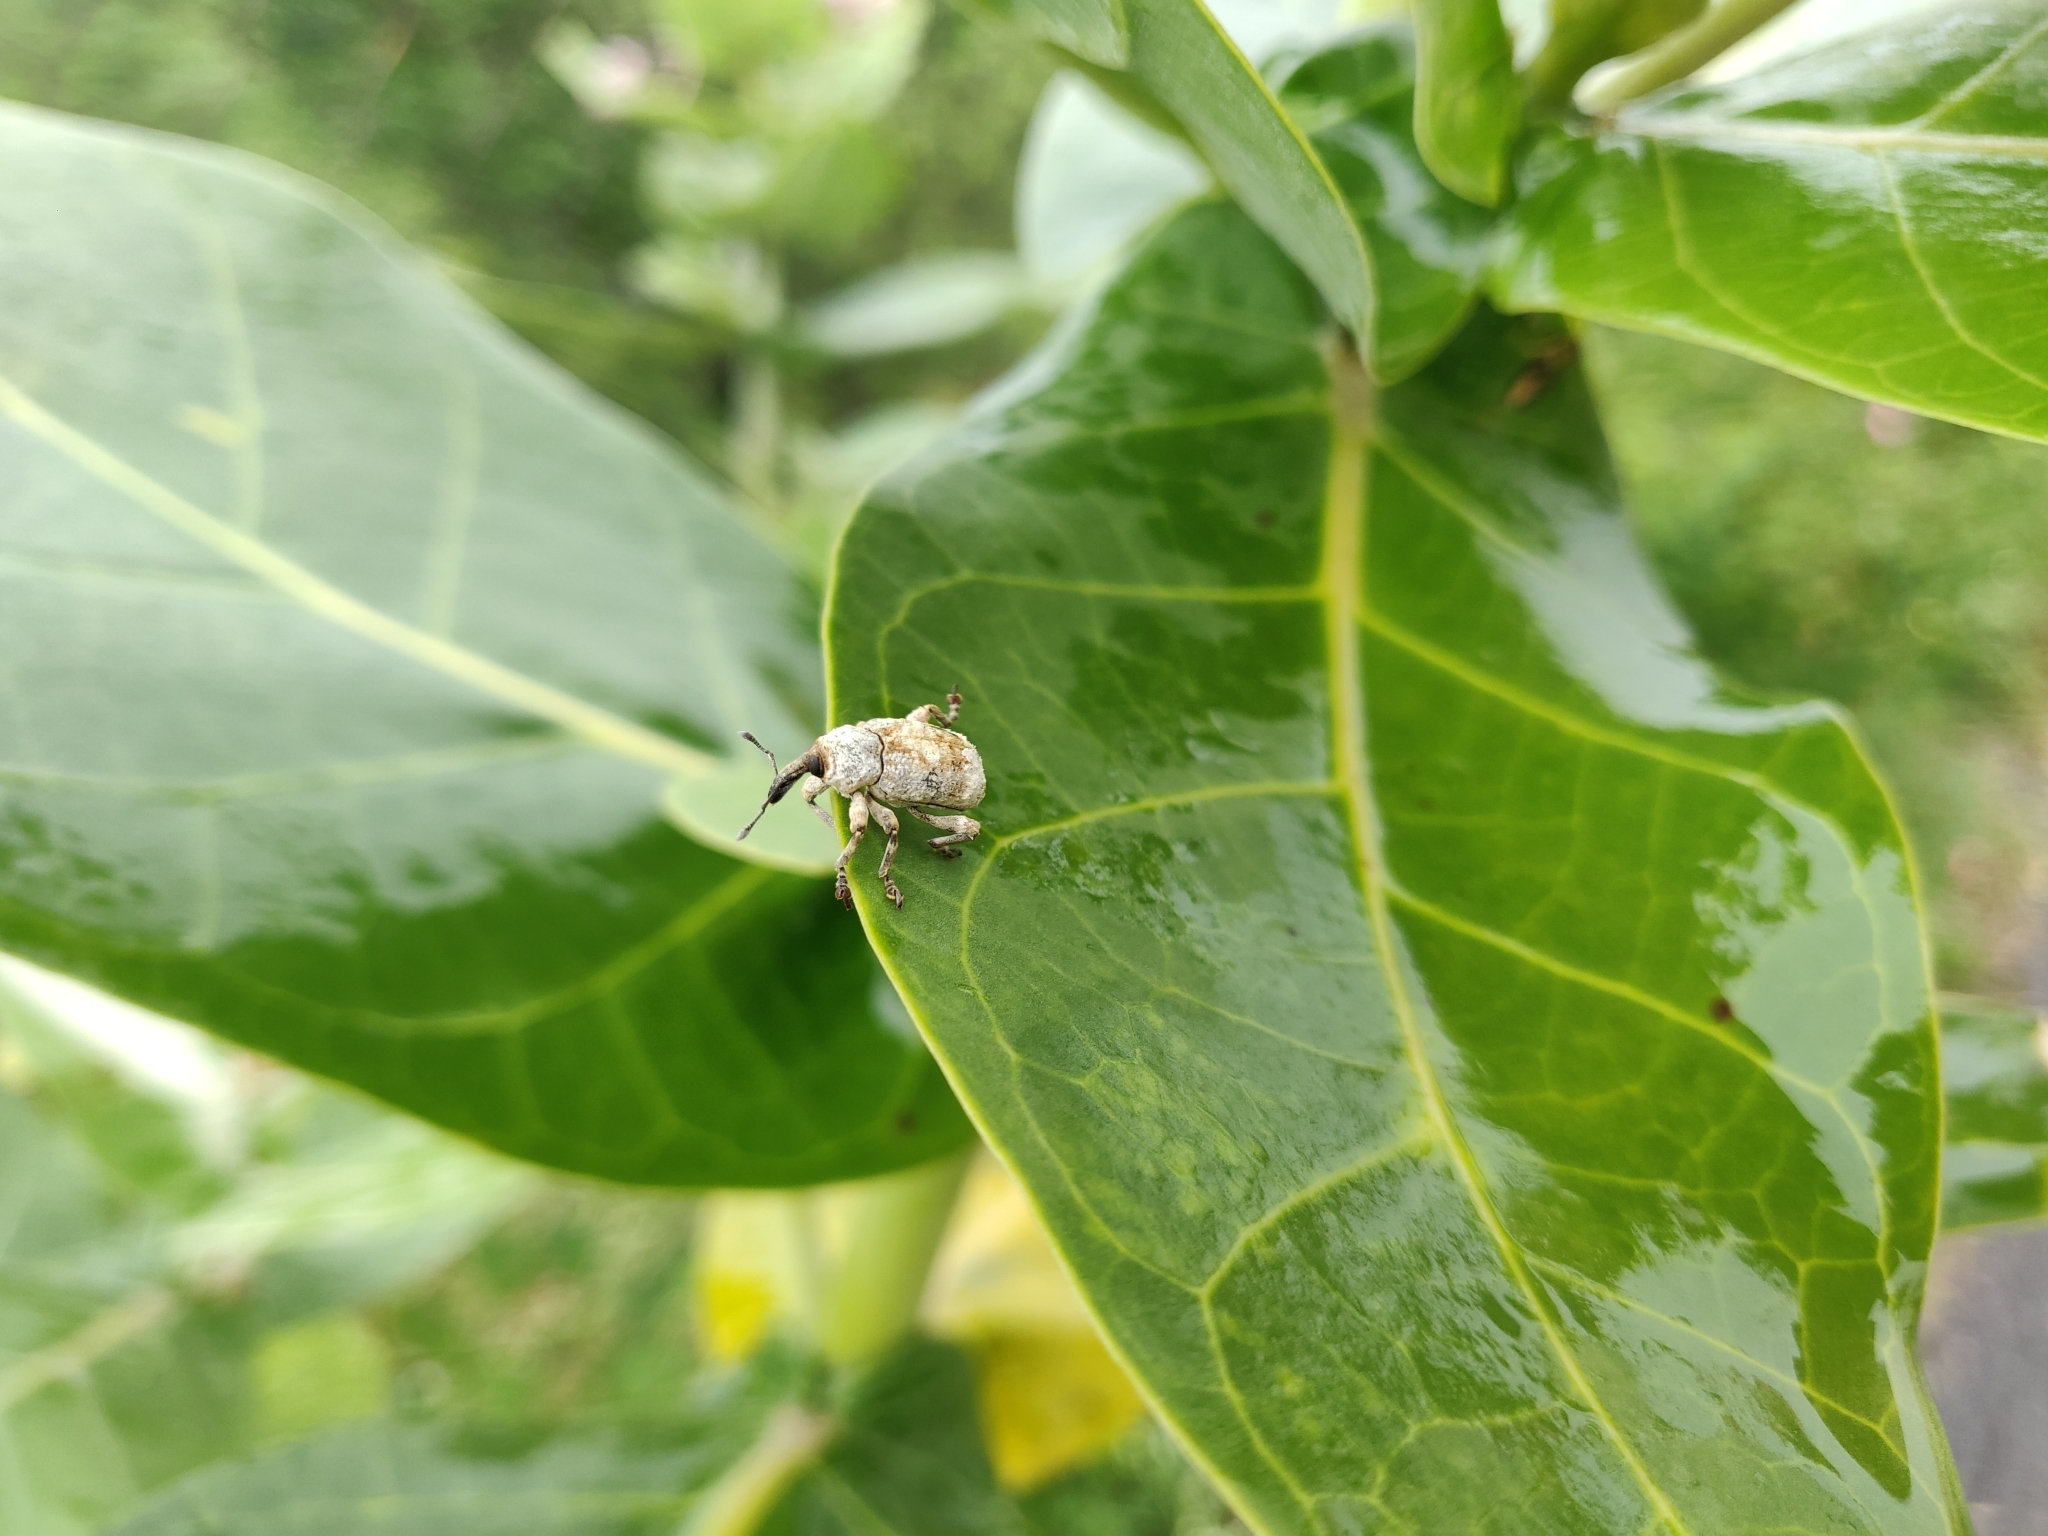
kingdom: Animalia
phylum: Arthropoda
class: Insecta
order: Coleoptera
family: Curculionidae
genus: Paramecops
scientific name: Paramecops farinosa
